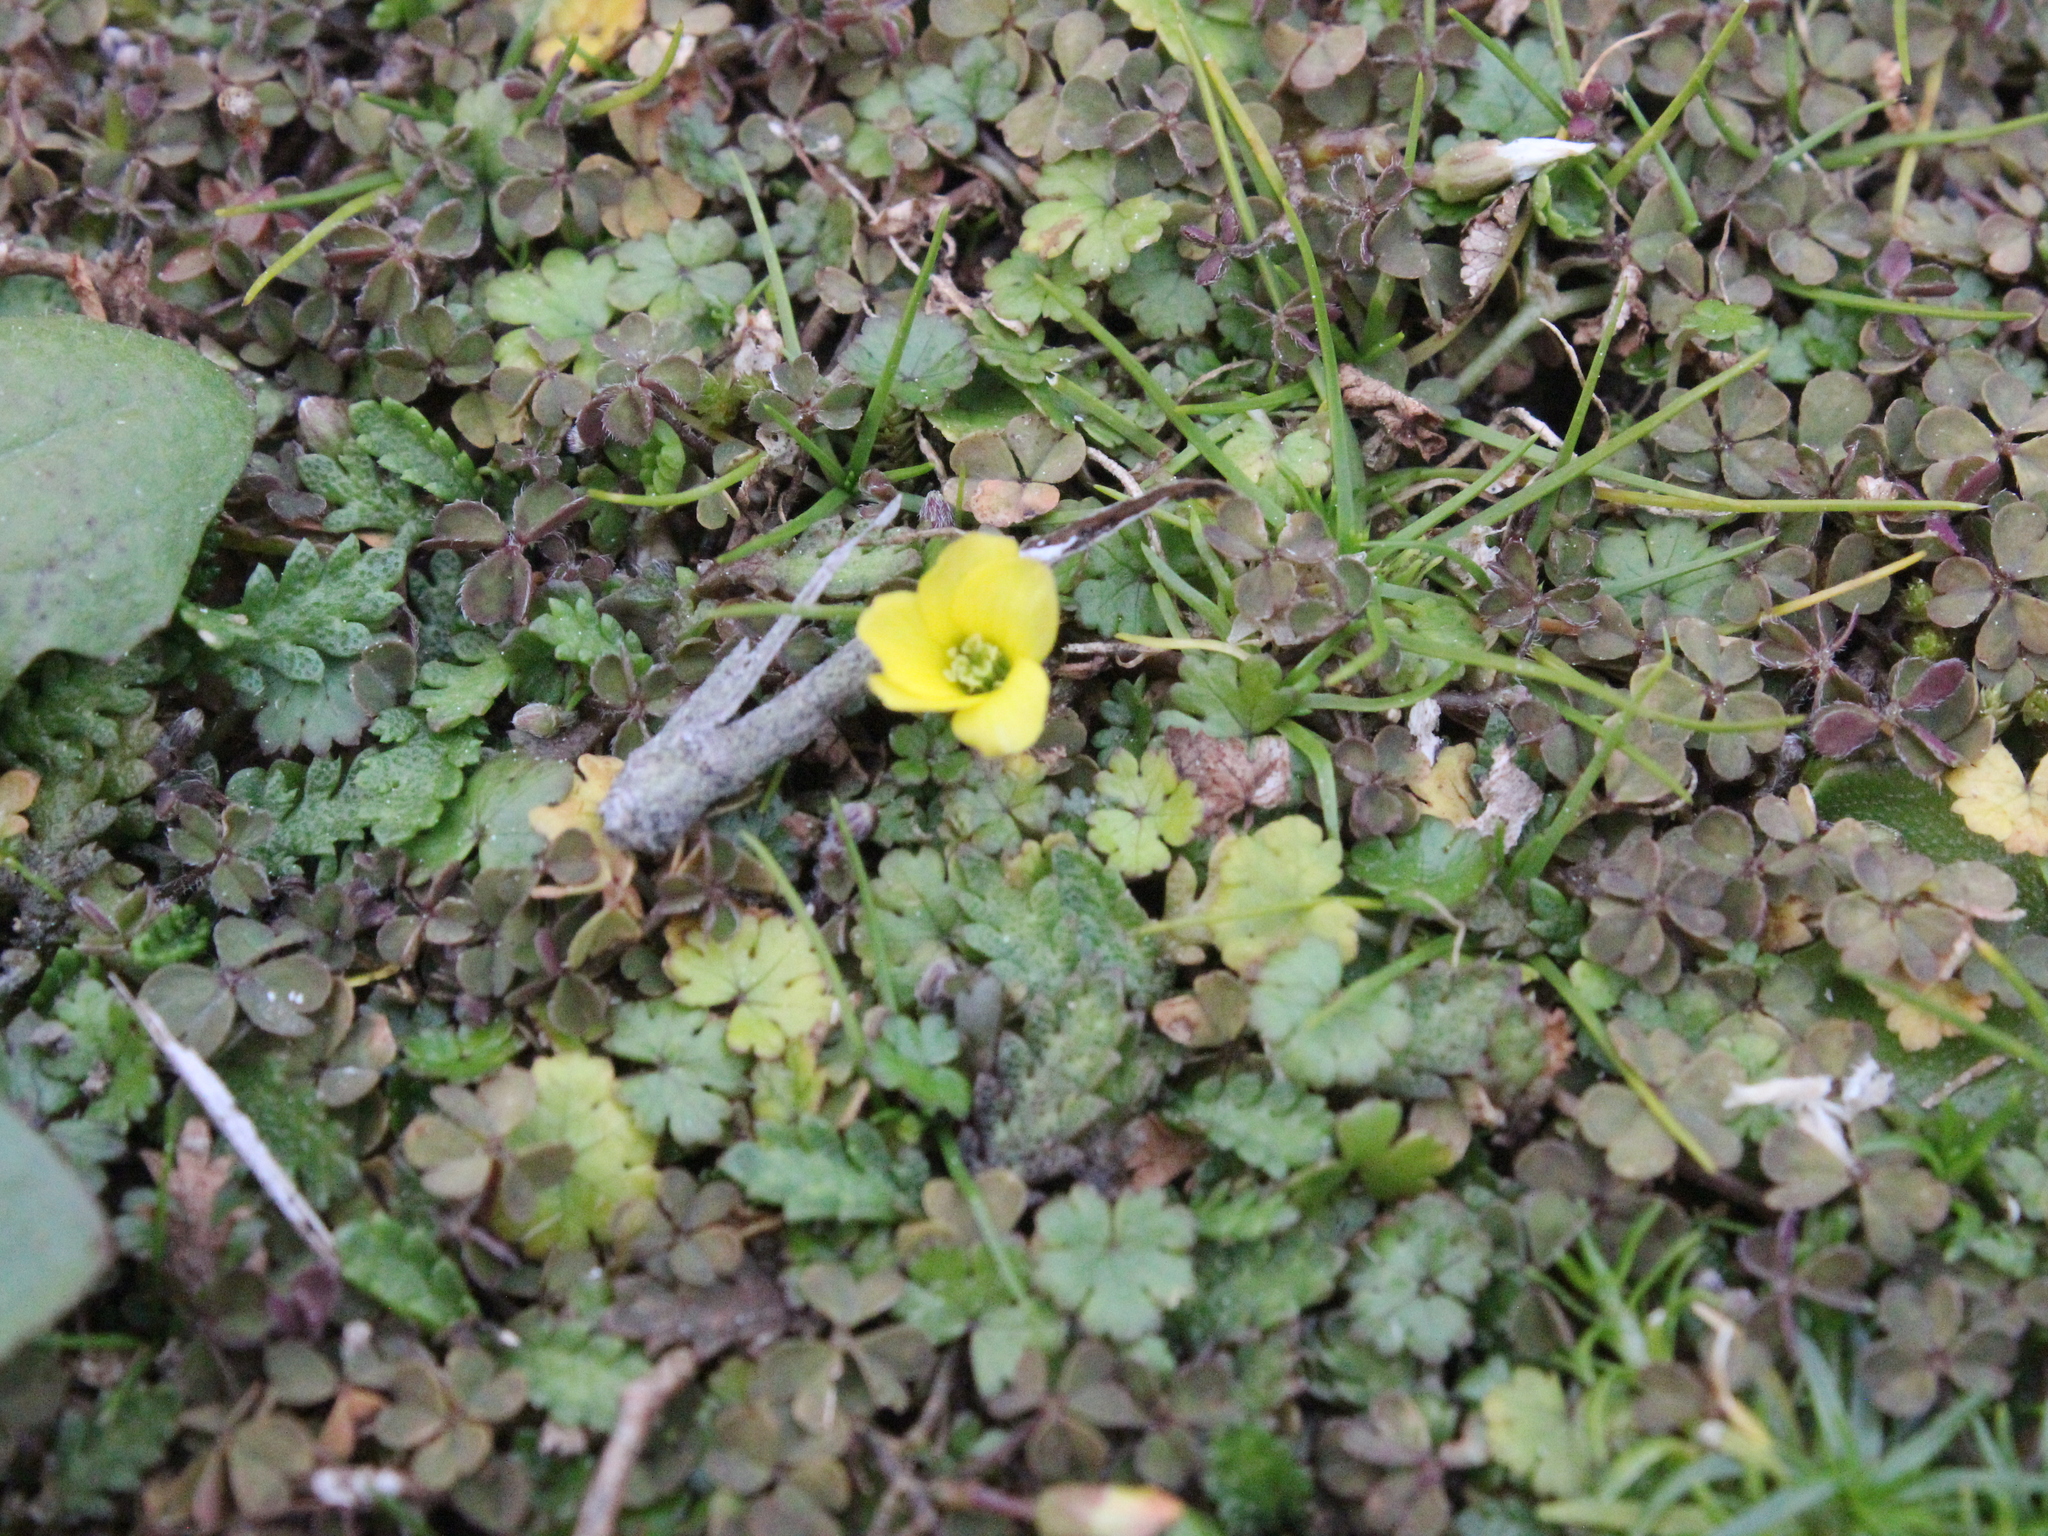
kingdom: Plantae
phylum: Tracheophyta
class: Magnoliopsida
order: Oxalidales
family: Oxalidaceae
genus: Oxalis
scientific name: Oxalis exilis
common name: Least yellow-sorrel
